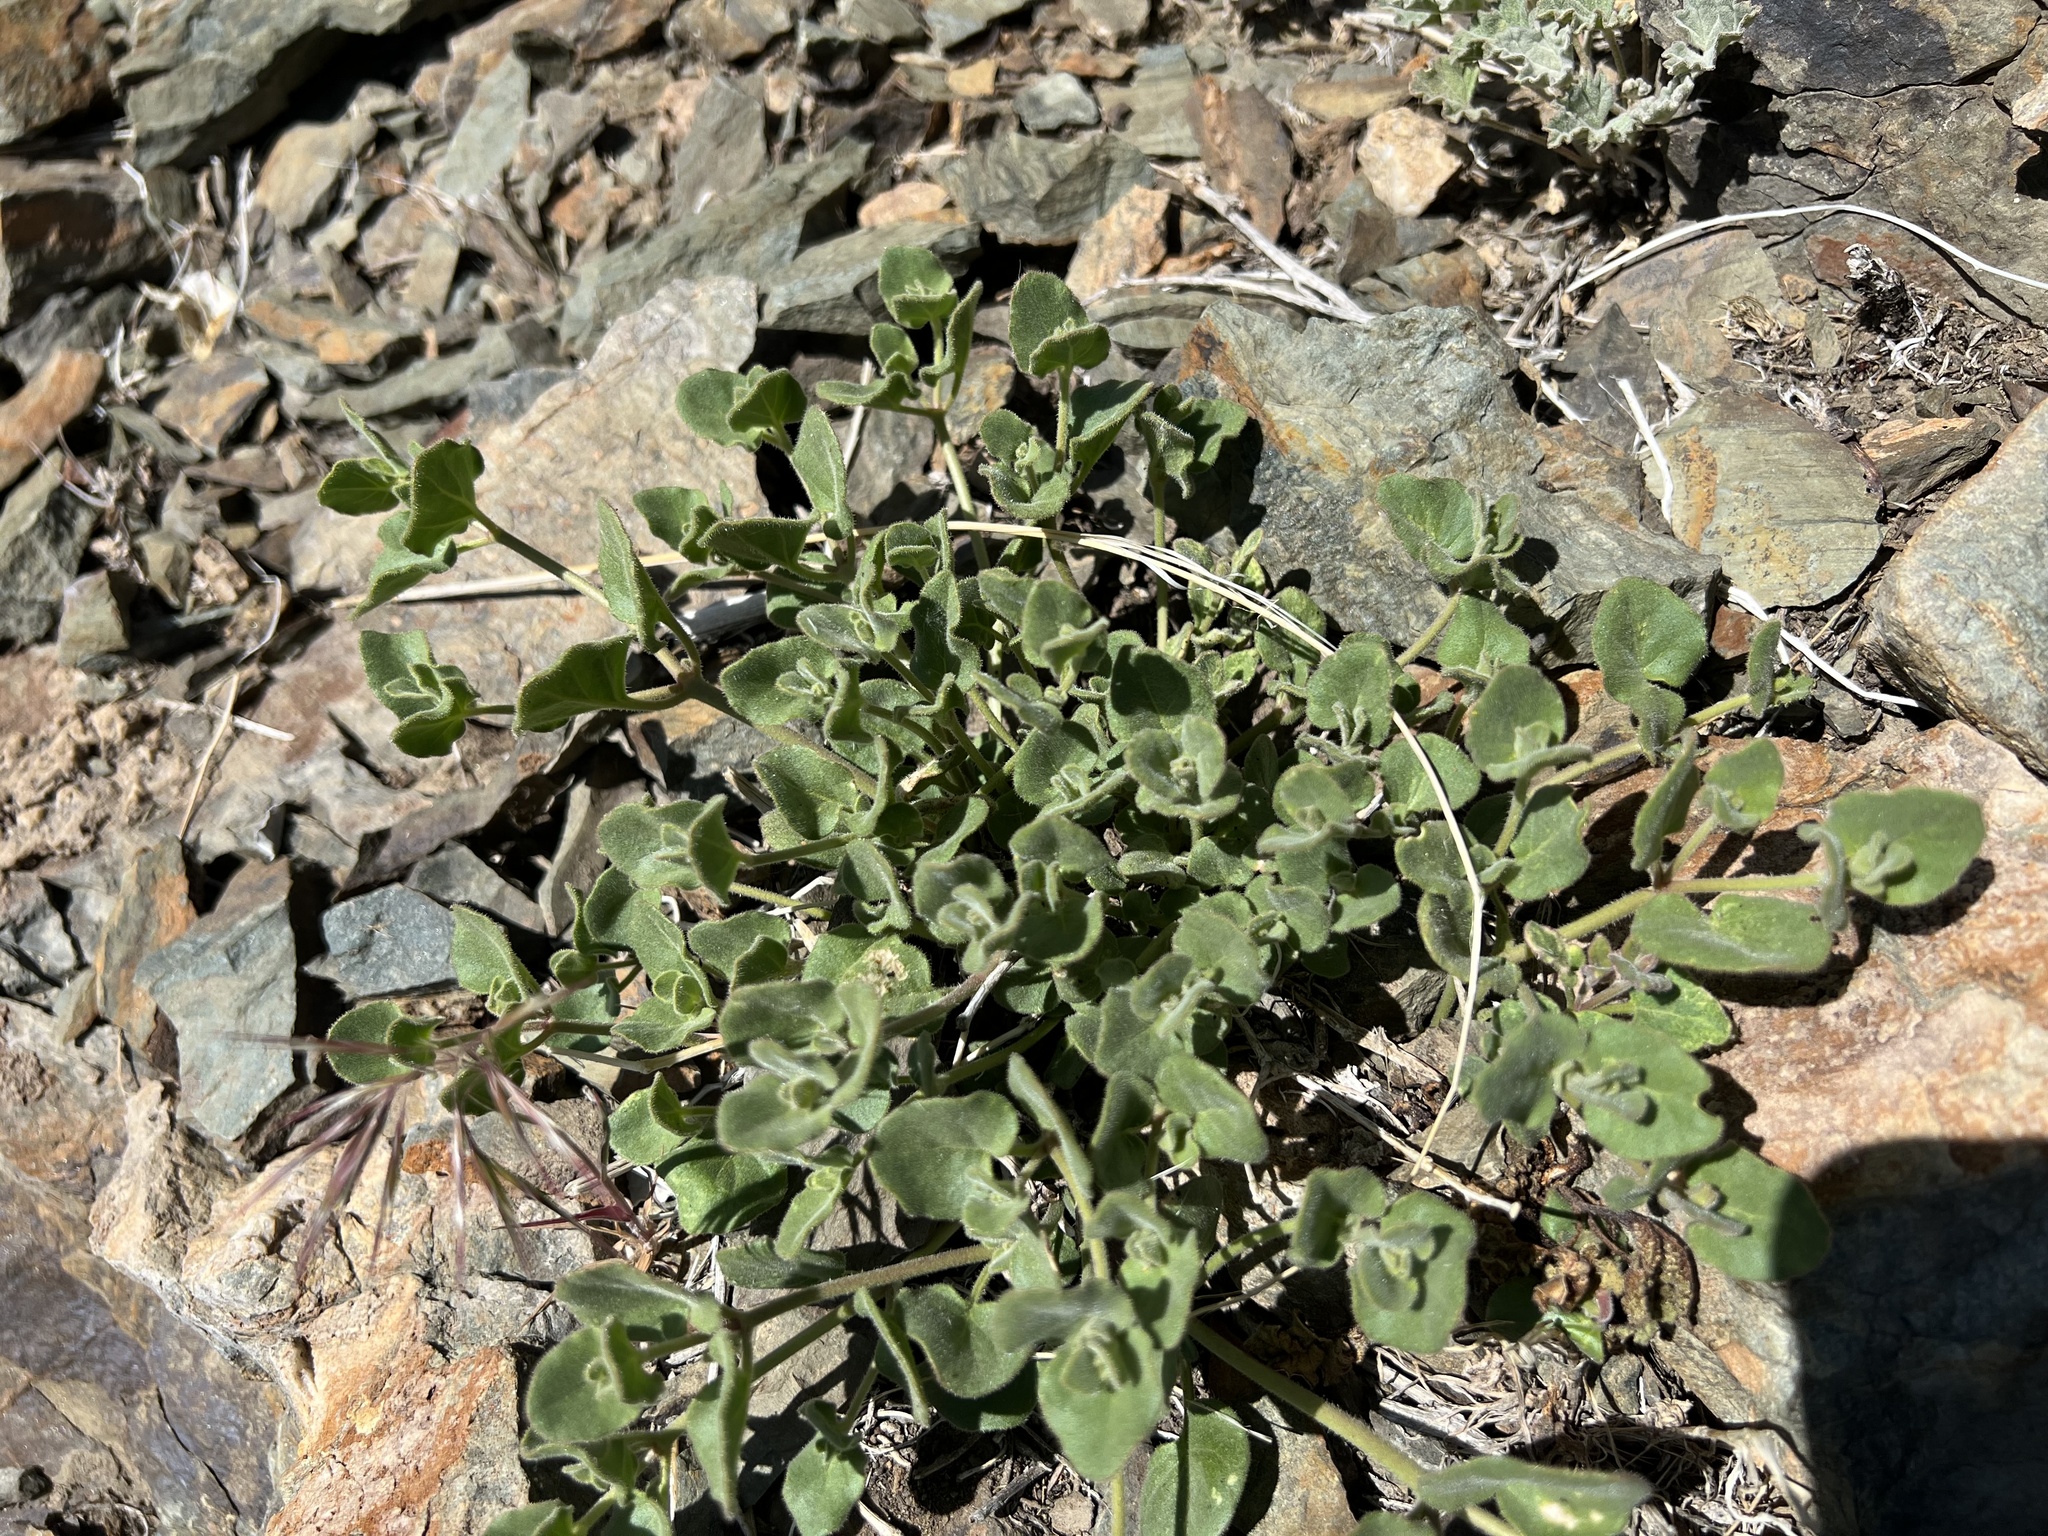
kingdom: Plantae
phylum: Tracheophyta
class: Magnoliopsida
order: Caryophyllales
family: Nyctaginaceae
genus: Mirabilis
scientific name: Mirabilis laevis
